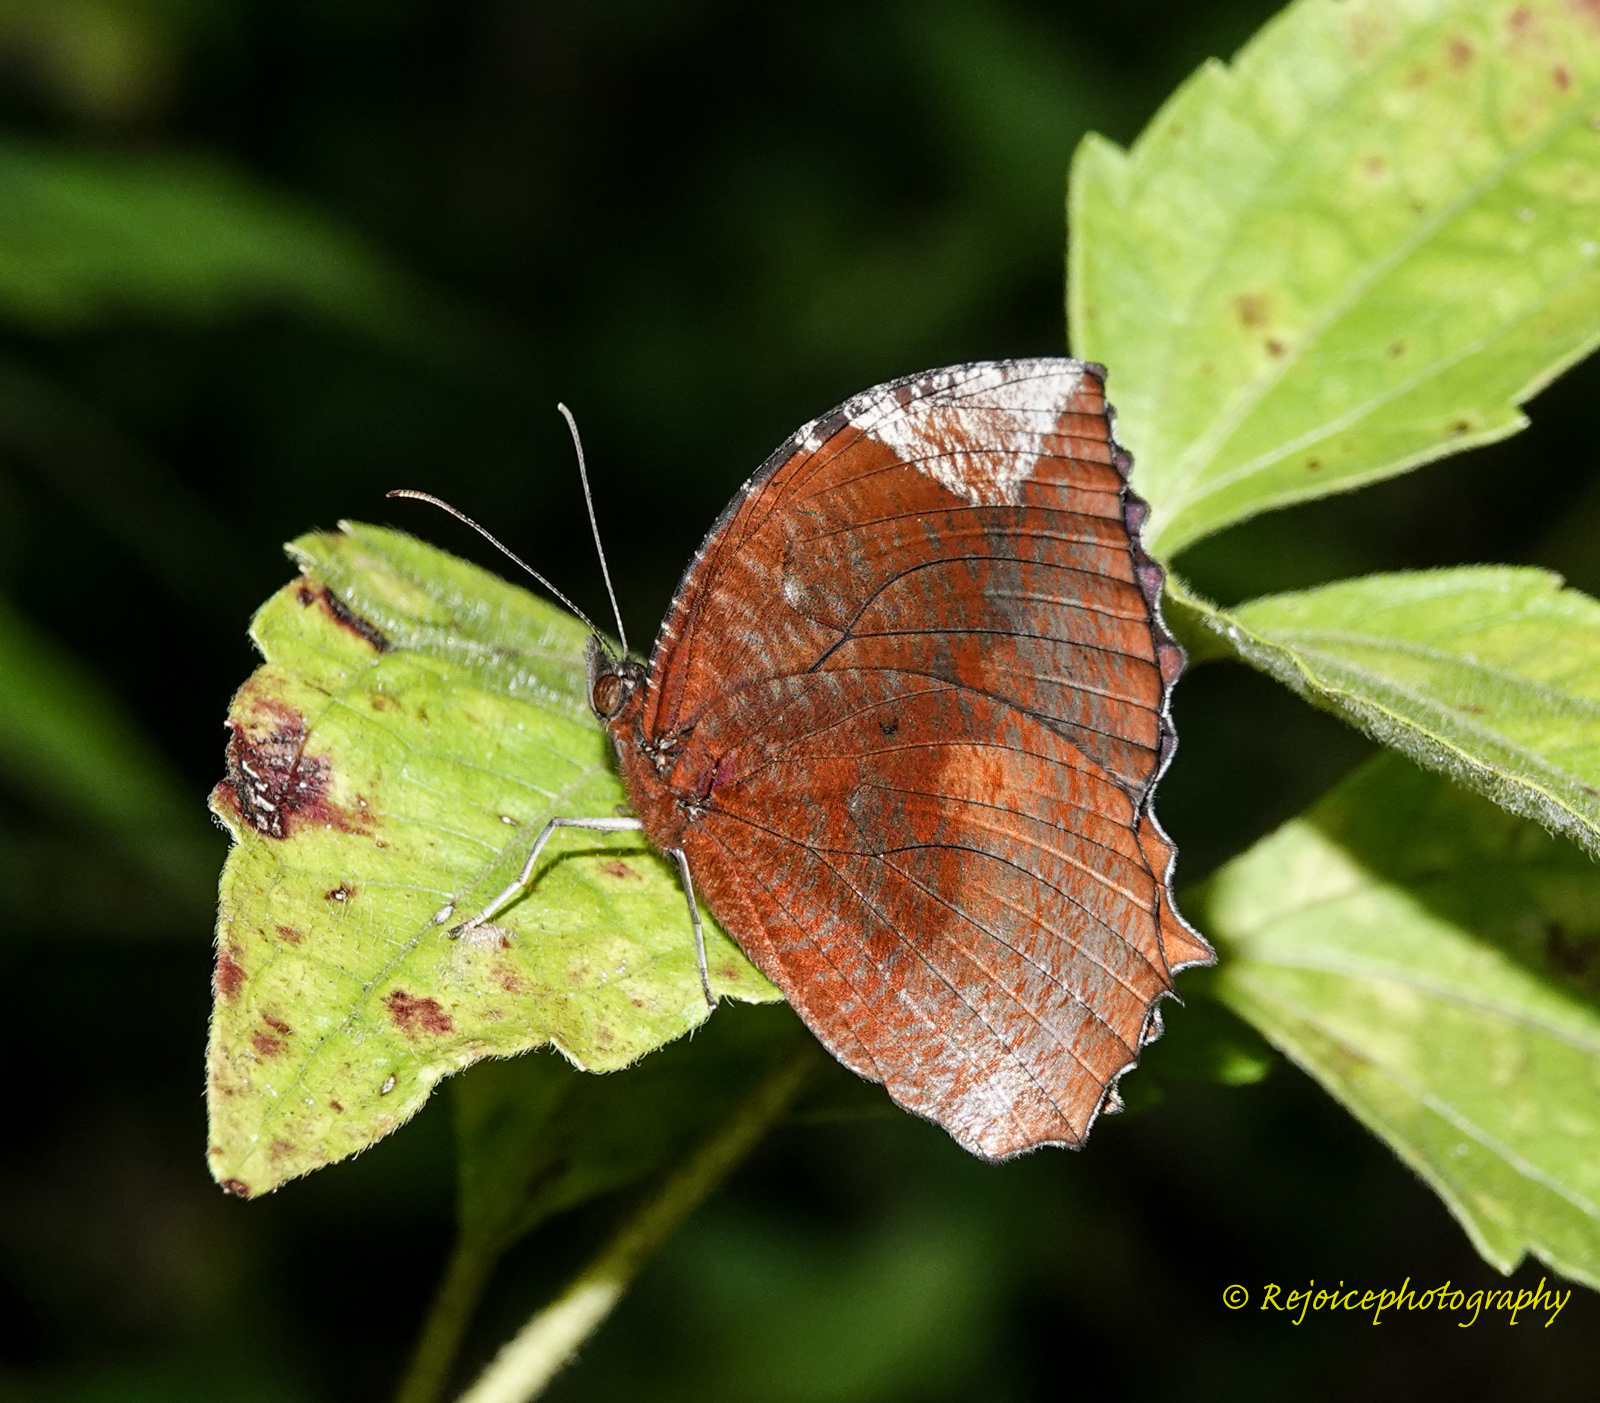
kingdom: Animalia
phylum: Arthropoda
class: Insecta
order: Lepidoptera
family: Nymphalidae
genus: Elymnias
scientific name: Elymnias hypermnestra
